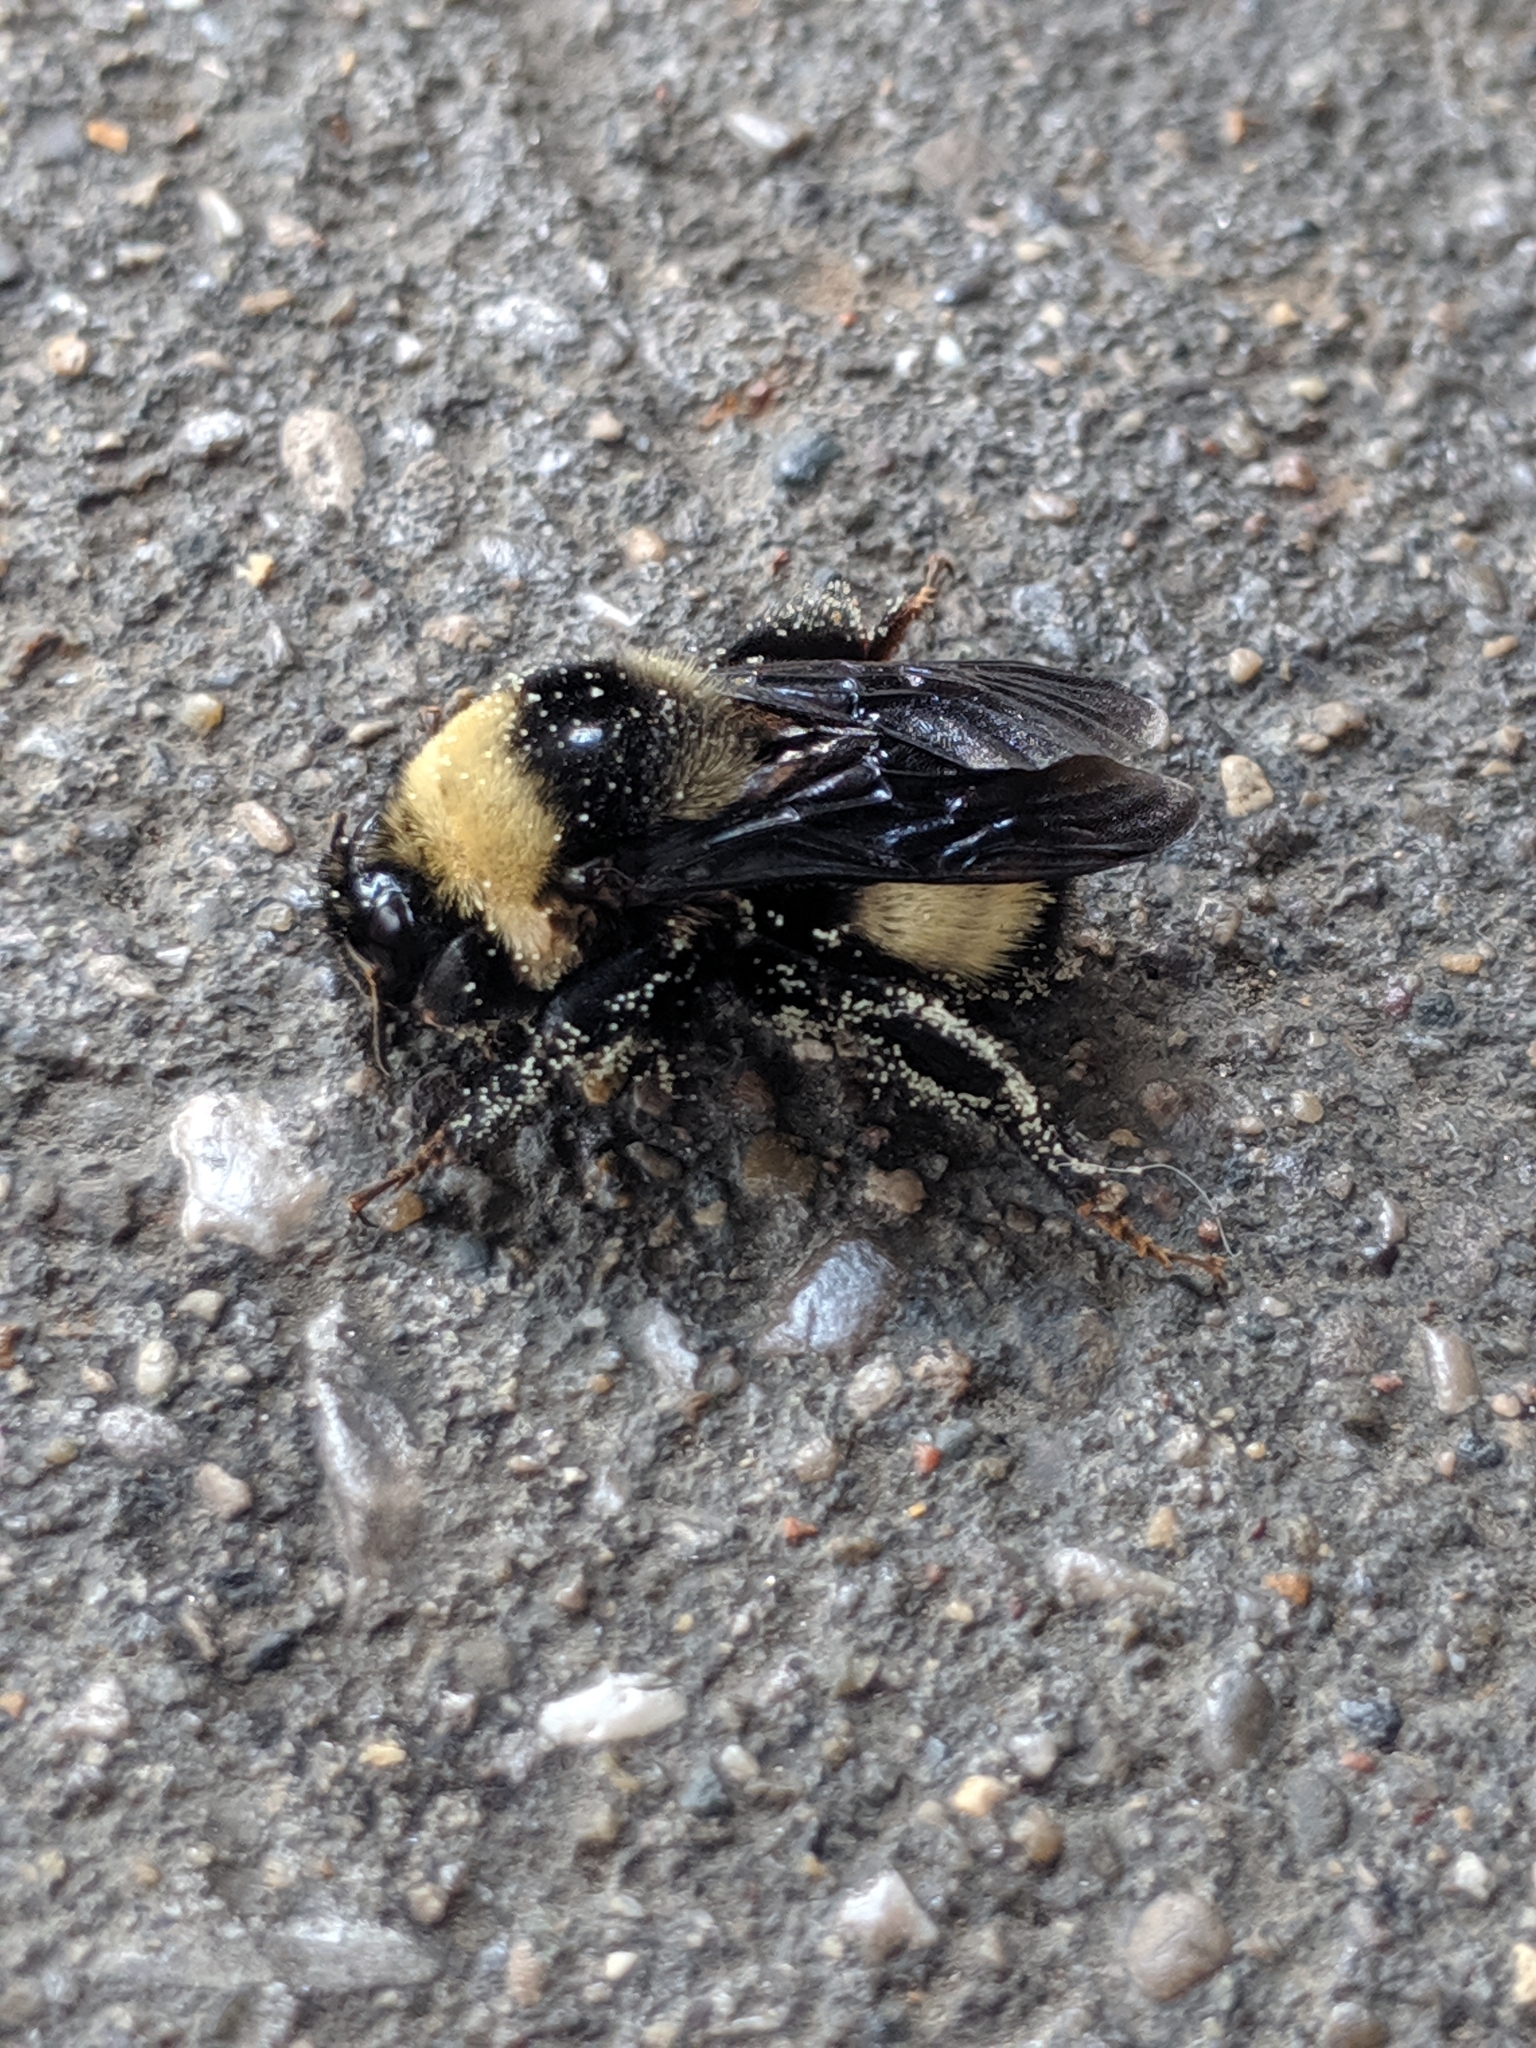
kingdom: Animalia
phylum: Arthropoda
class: Insecta
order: Hymenoptera
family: Apidae
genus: Bombus
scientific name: Bombus auricomus
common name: Black and gold bumble bee
